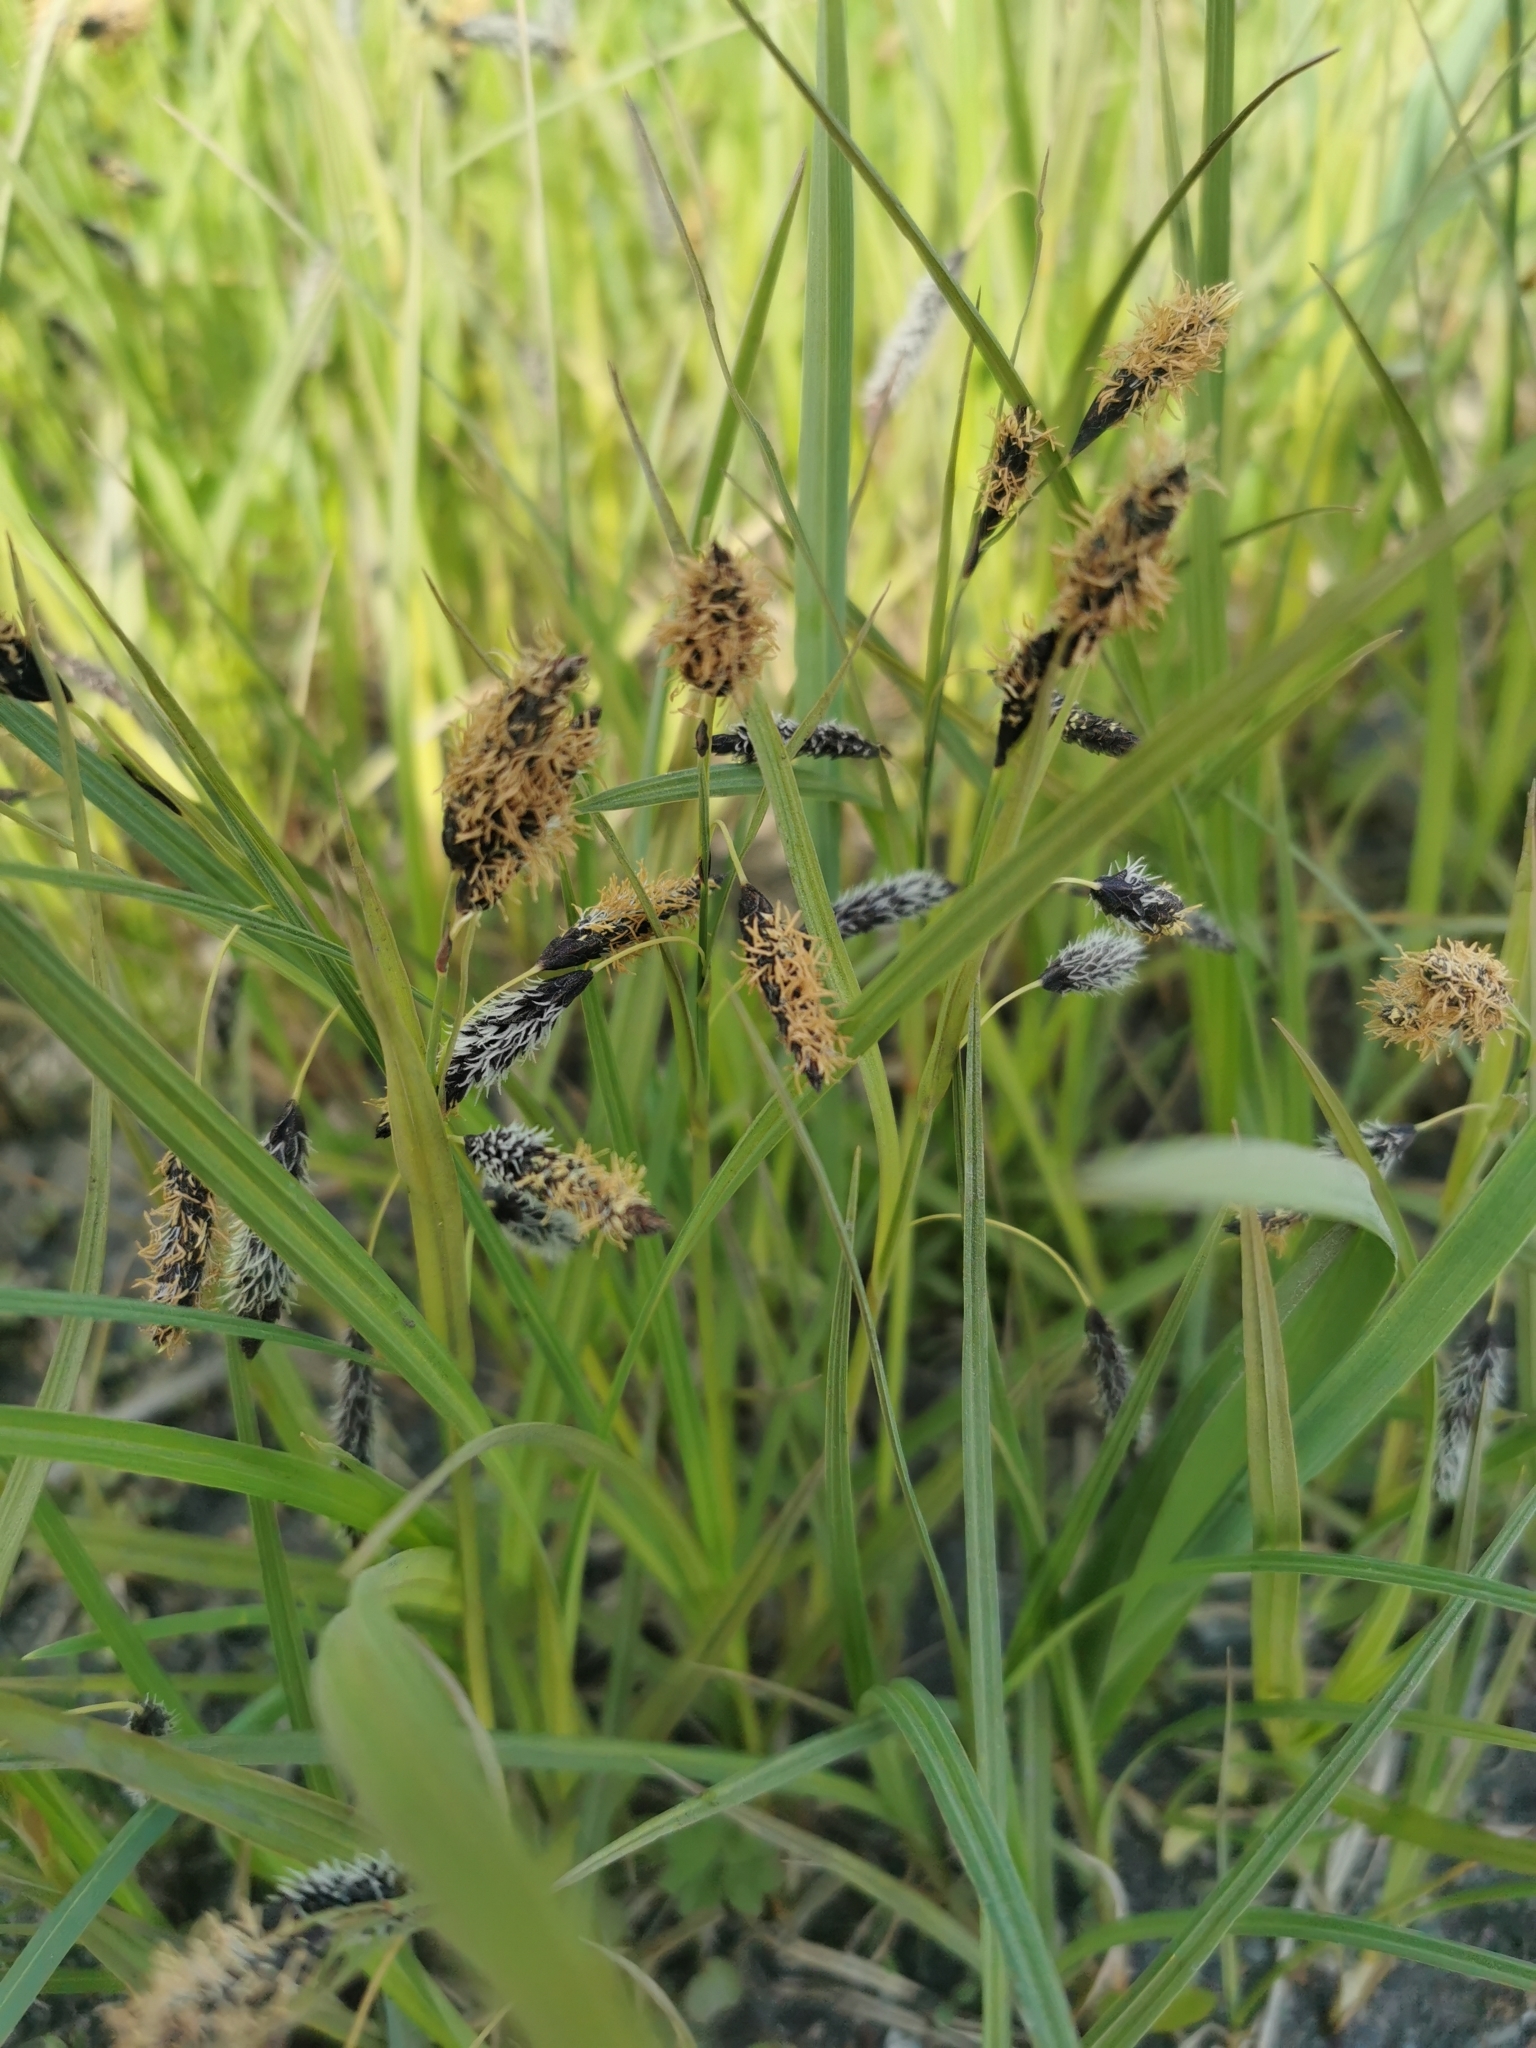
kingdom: Plantae
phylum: Tracheophyta
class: Liliopsida
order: Poales
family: Cyperaceae
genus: Carex
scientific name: Carex scita
